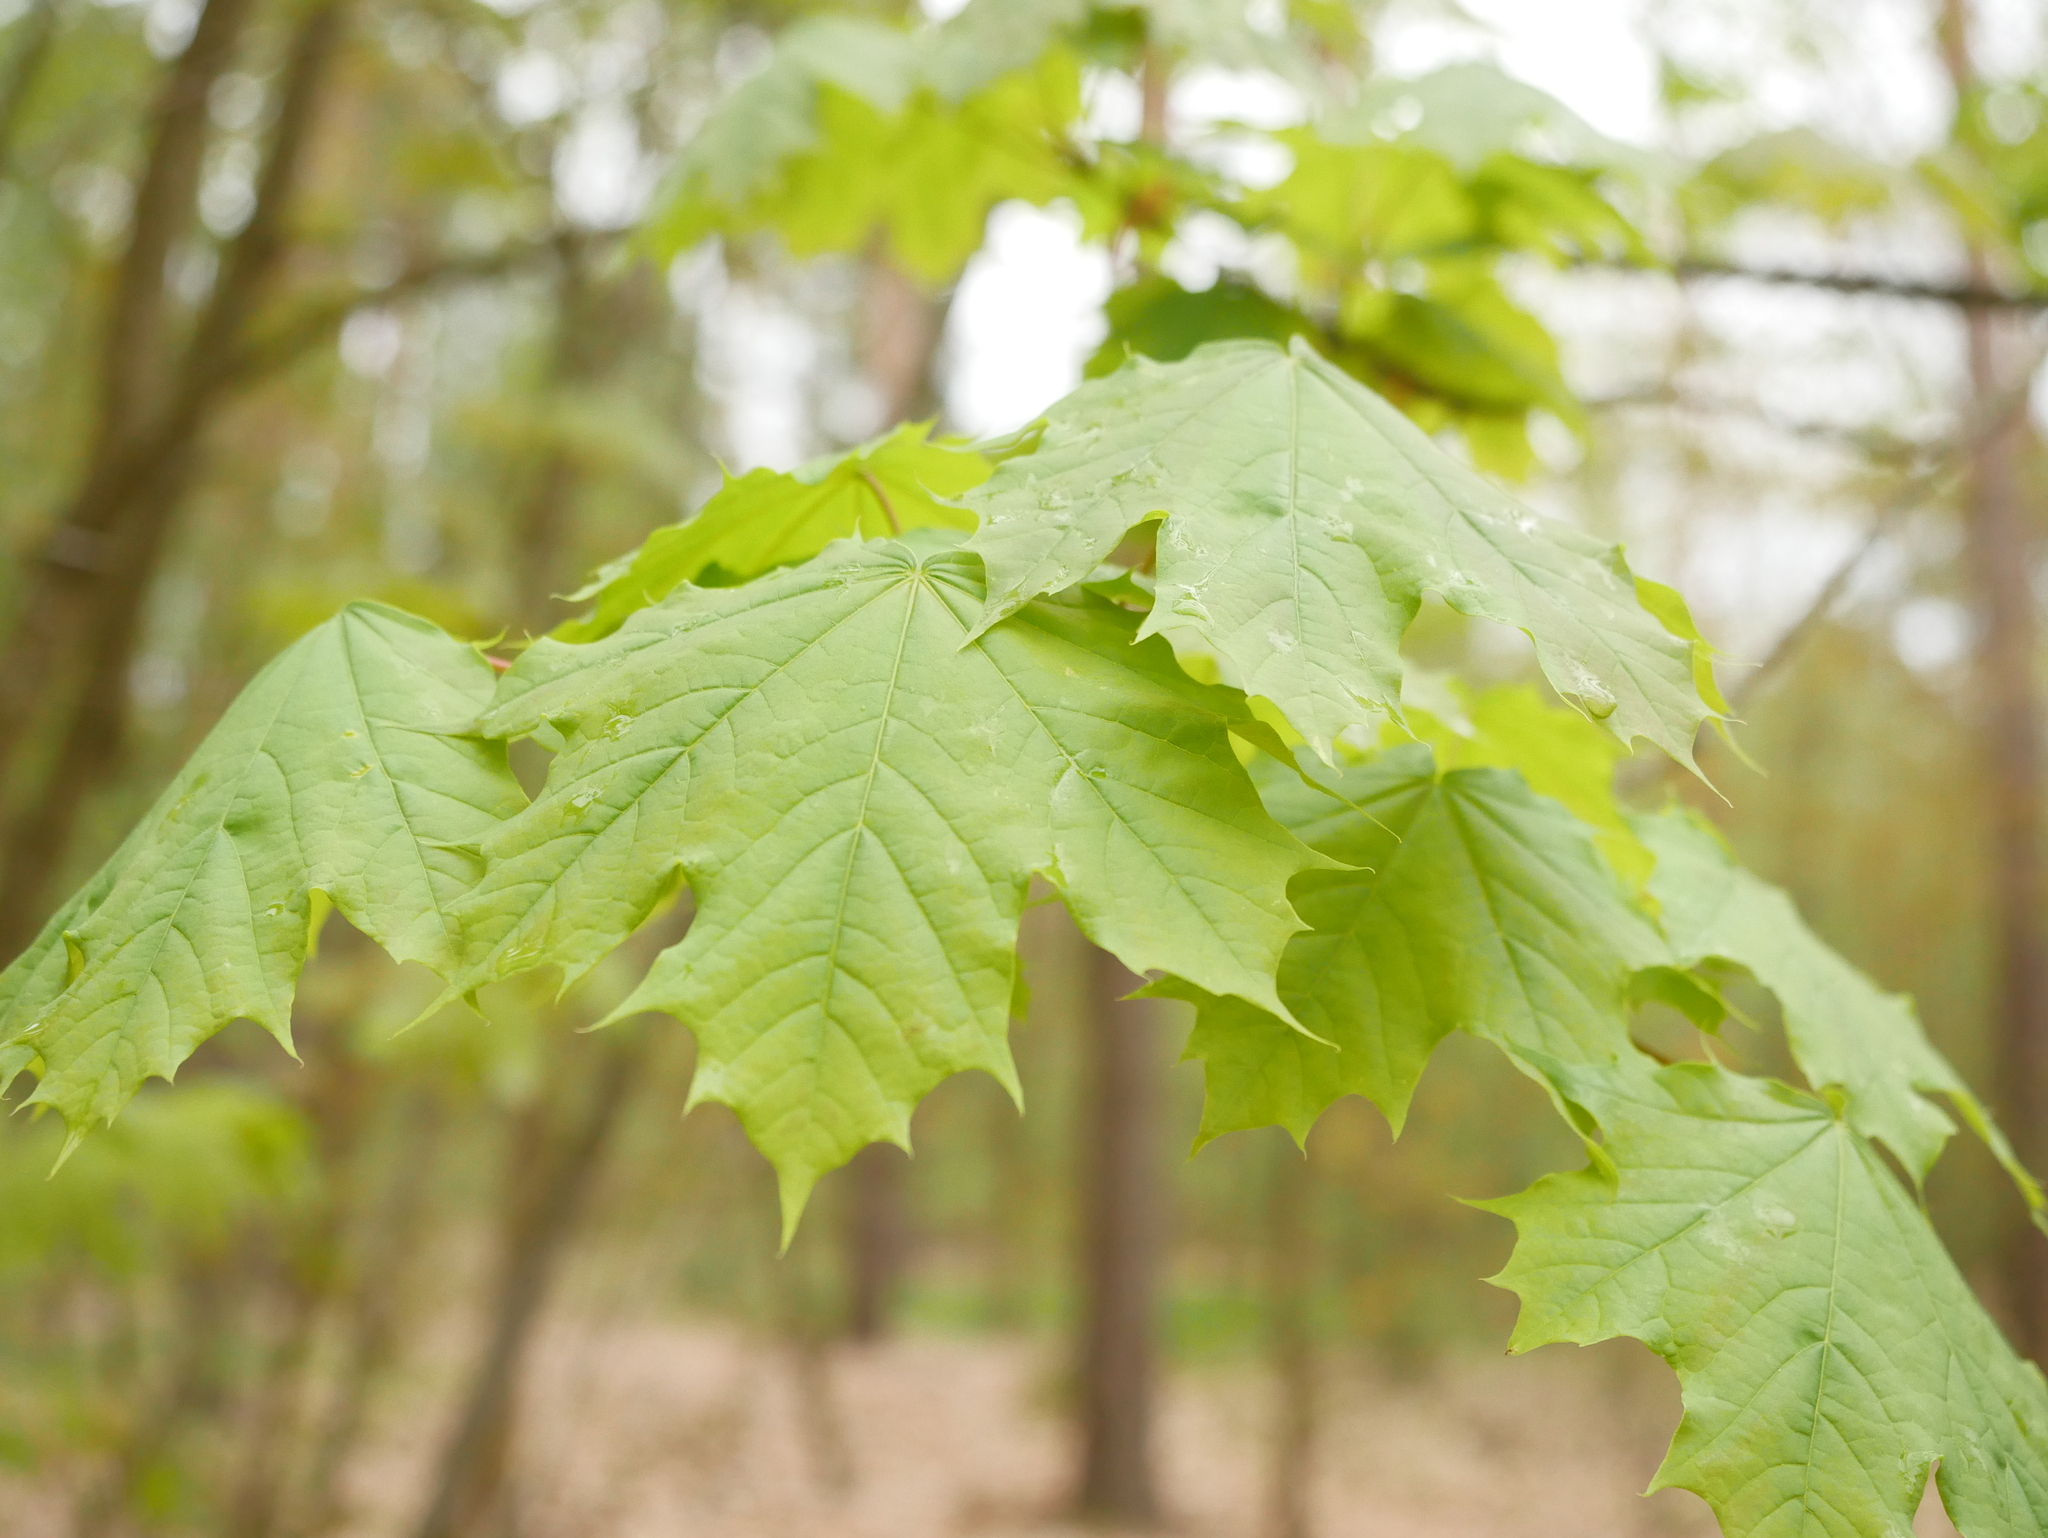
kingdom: Plantae
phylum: Tracheophyta
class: Magnoliopsida
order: Sapindales
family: Sapindaceae
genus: Acer
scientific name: Acer platanoides
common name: Norway maple
